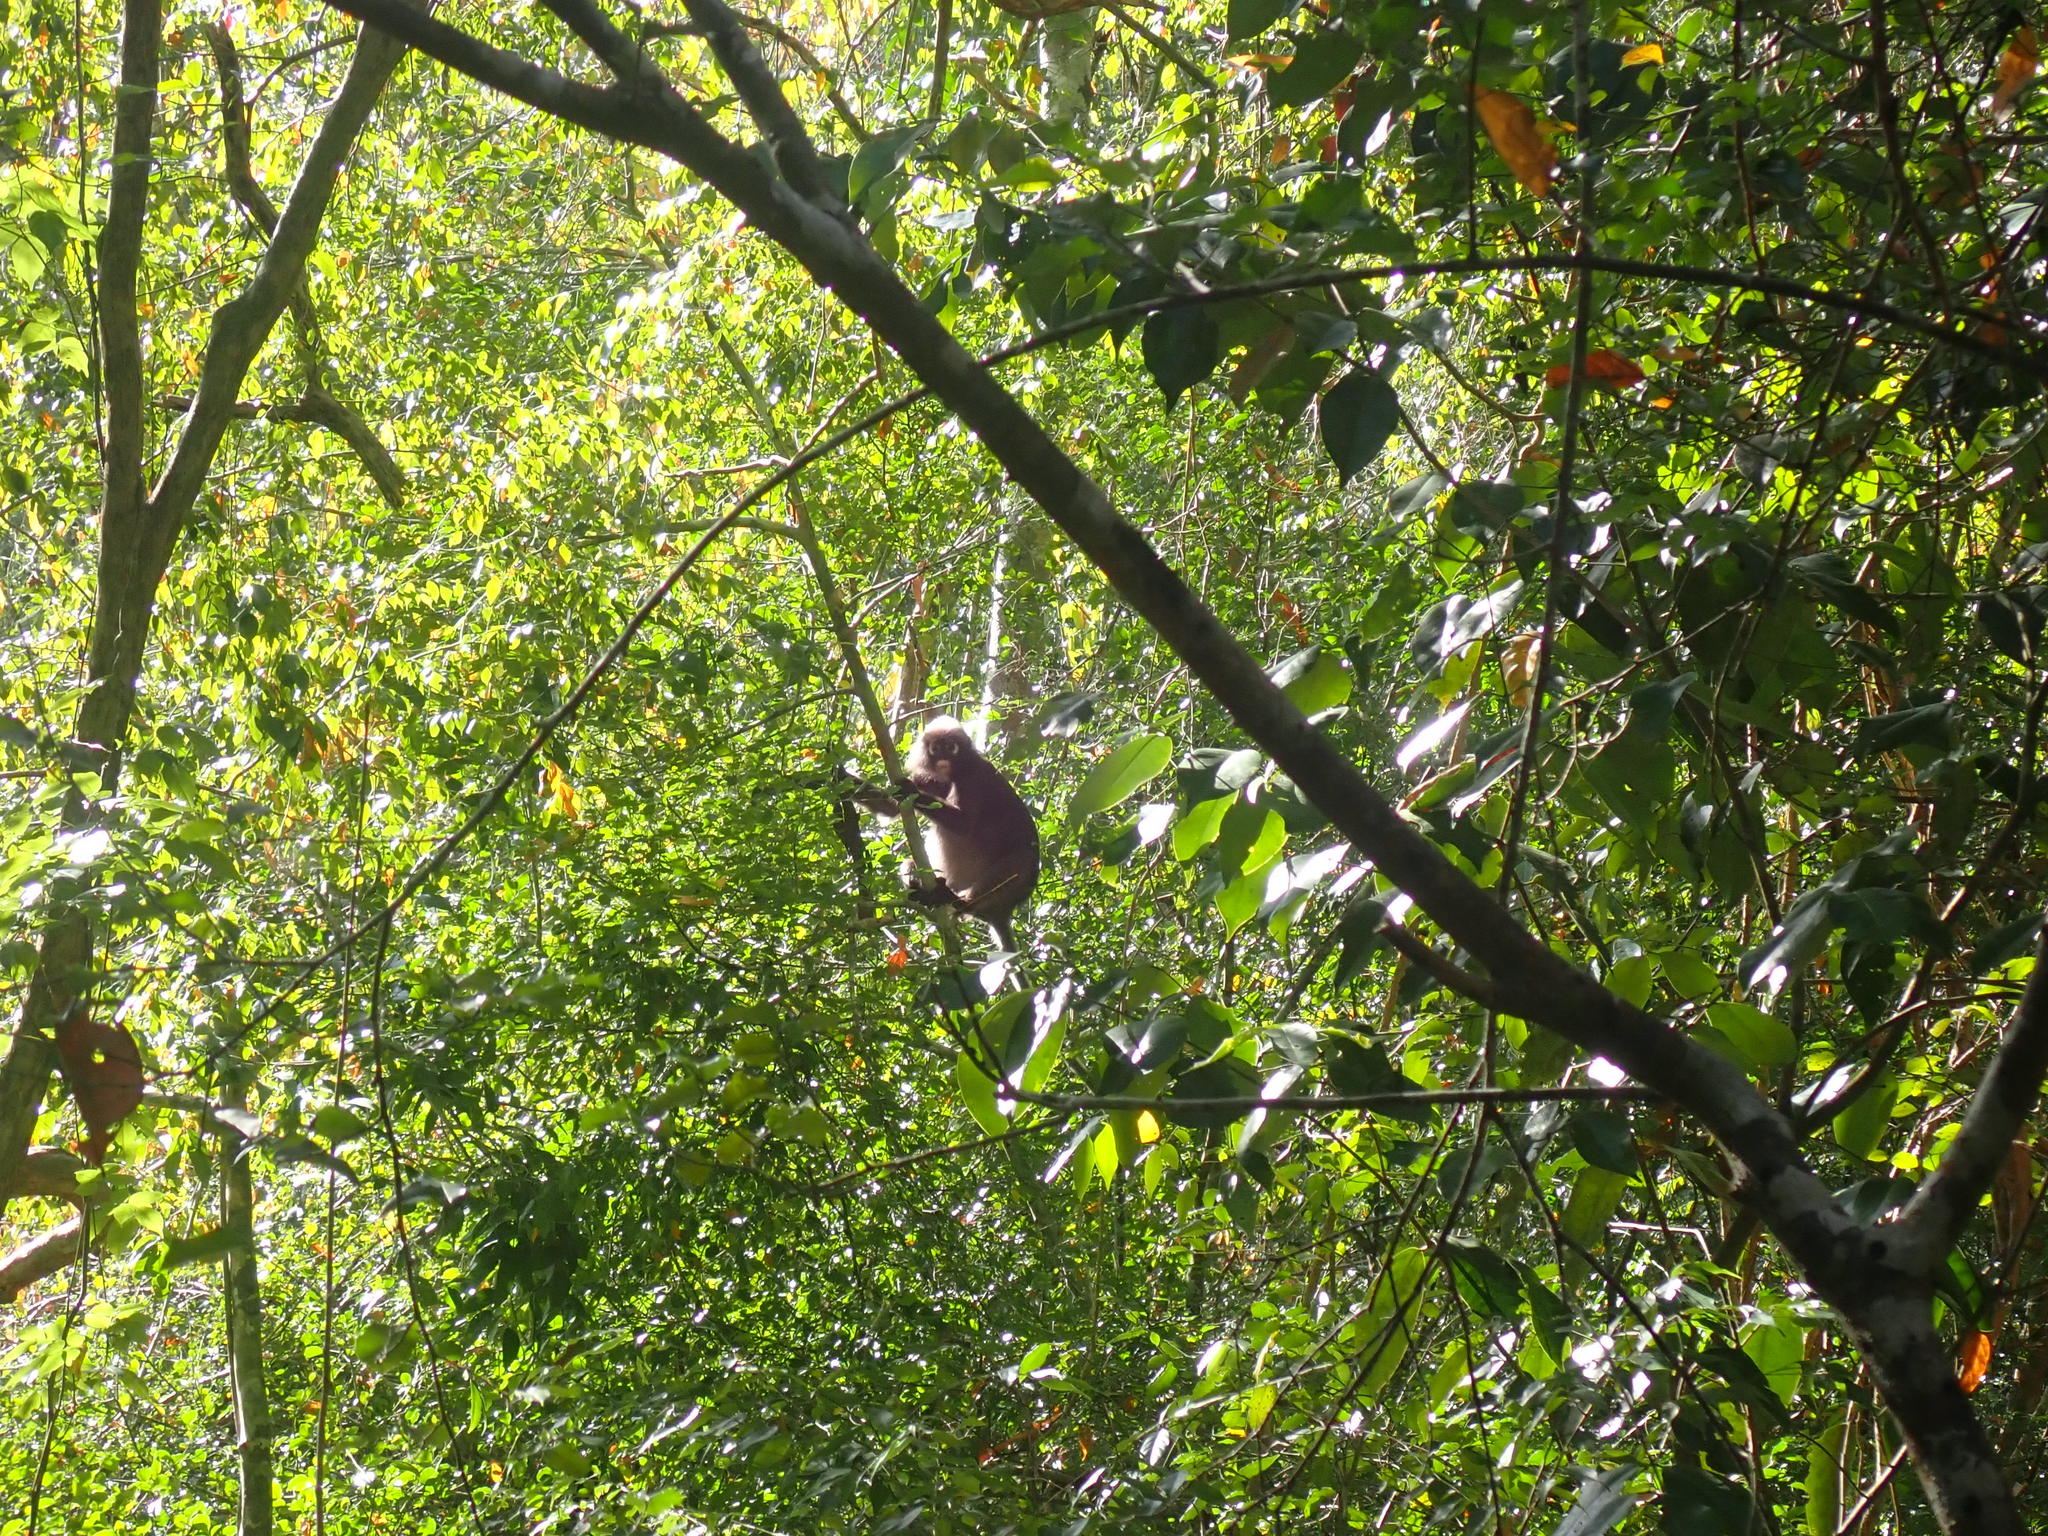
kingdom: Animalia
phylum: Chordata
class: Mammalia
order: Primates
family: Cercopithecidae
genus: Trachypithecus
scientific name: Trachypithecus obscurus
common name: Dusky leaf-monkey
